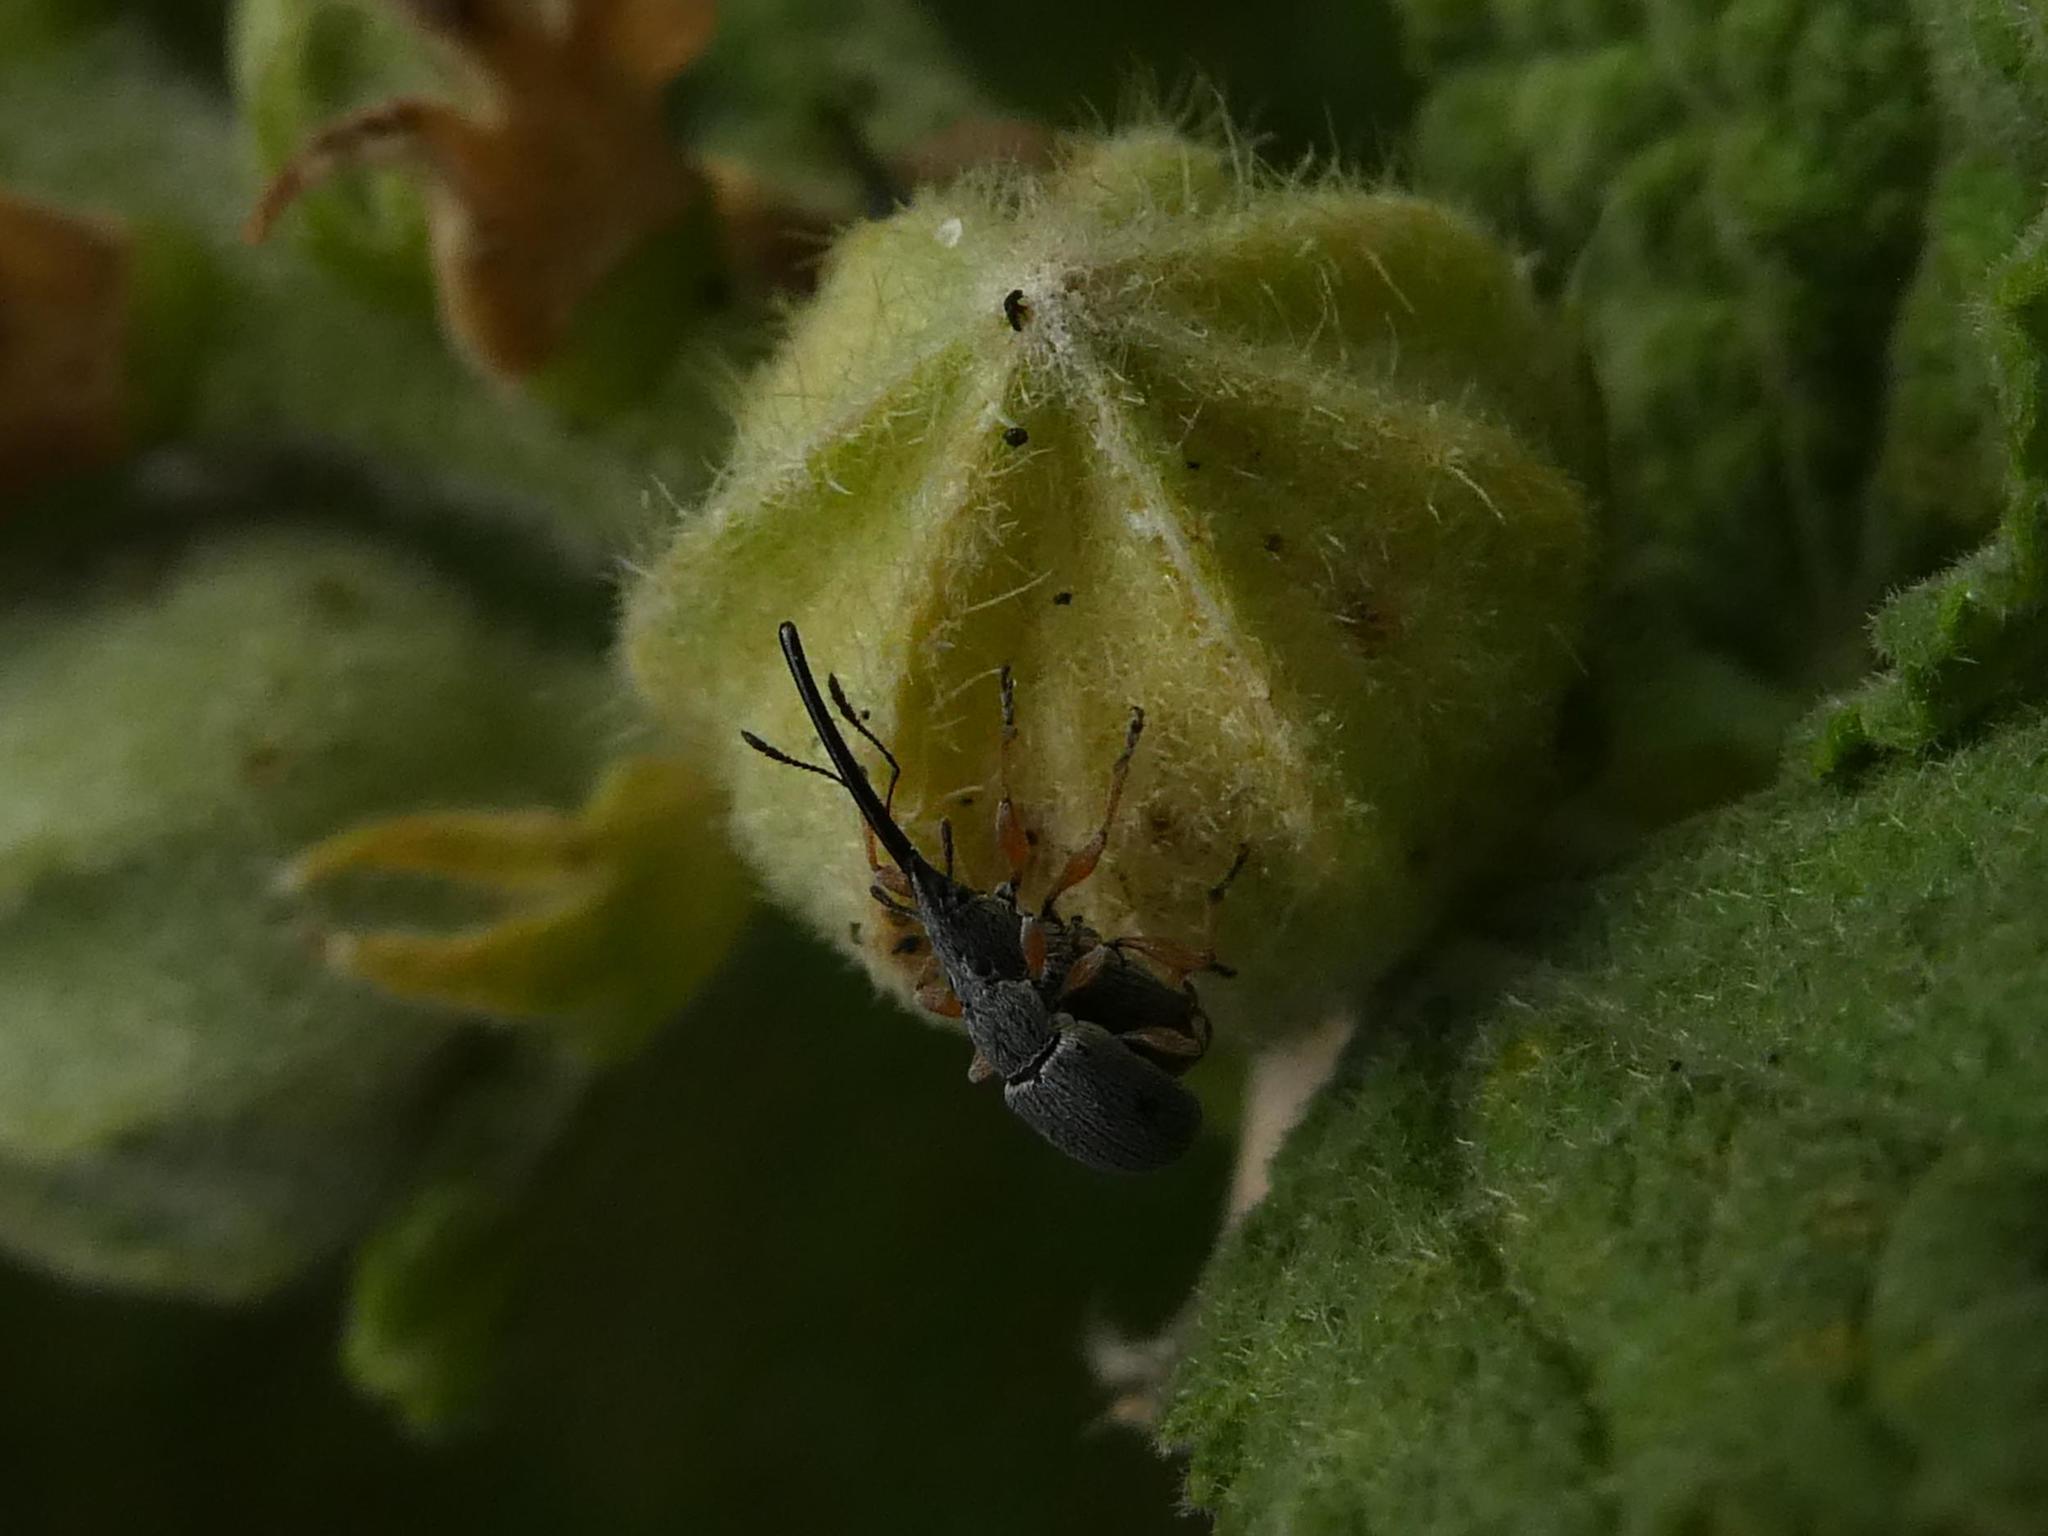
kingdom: Animalia
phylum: Arthropoda
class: Insecta
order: Coleoptera
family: Brentidae
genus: Rhopalapion
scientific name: Rhopalapion longirostre
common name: Hollyhock weevil
